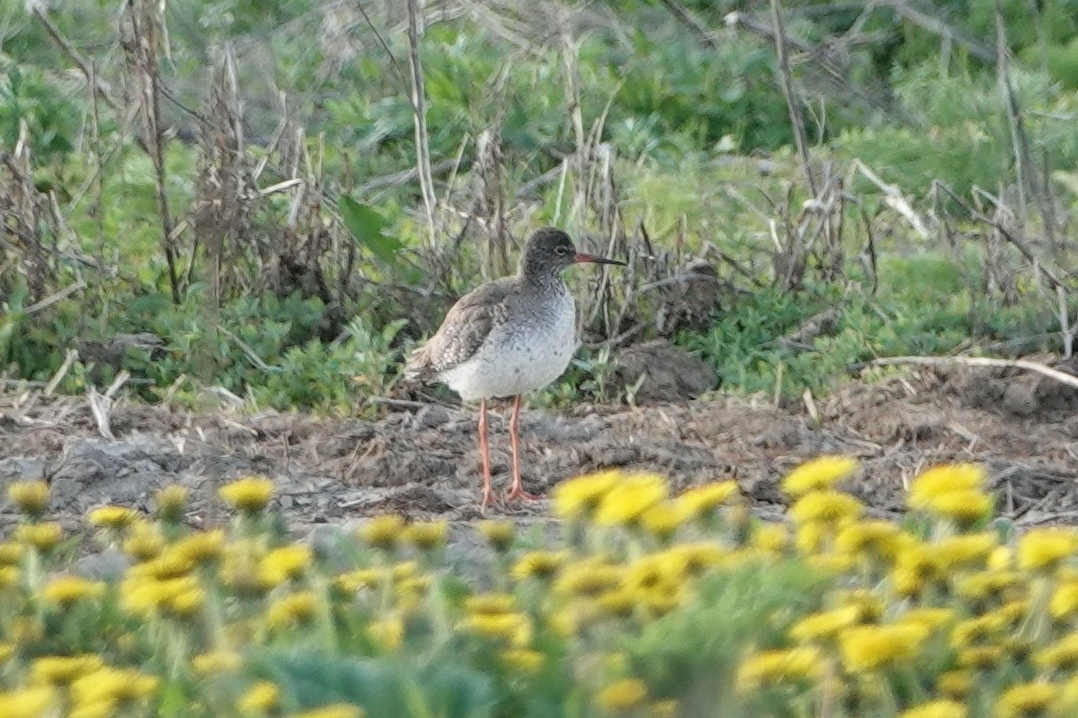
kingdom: Animalia
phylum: Chordata
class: Aves
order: Charadriiformes
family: Scolopacidae
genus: Tringa
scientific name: Tringa totanus
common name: Common redshank
